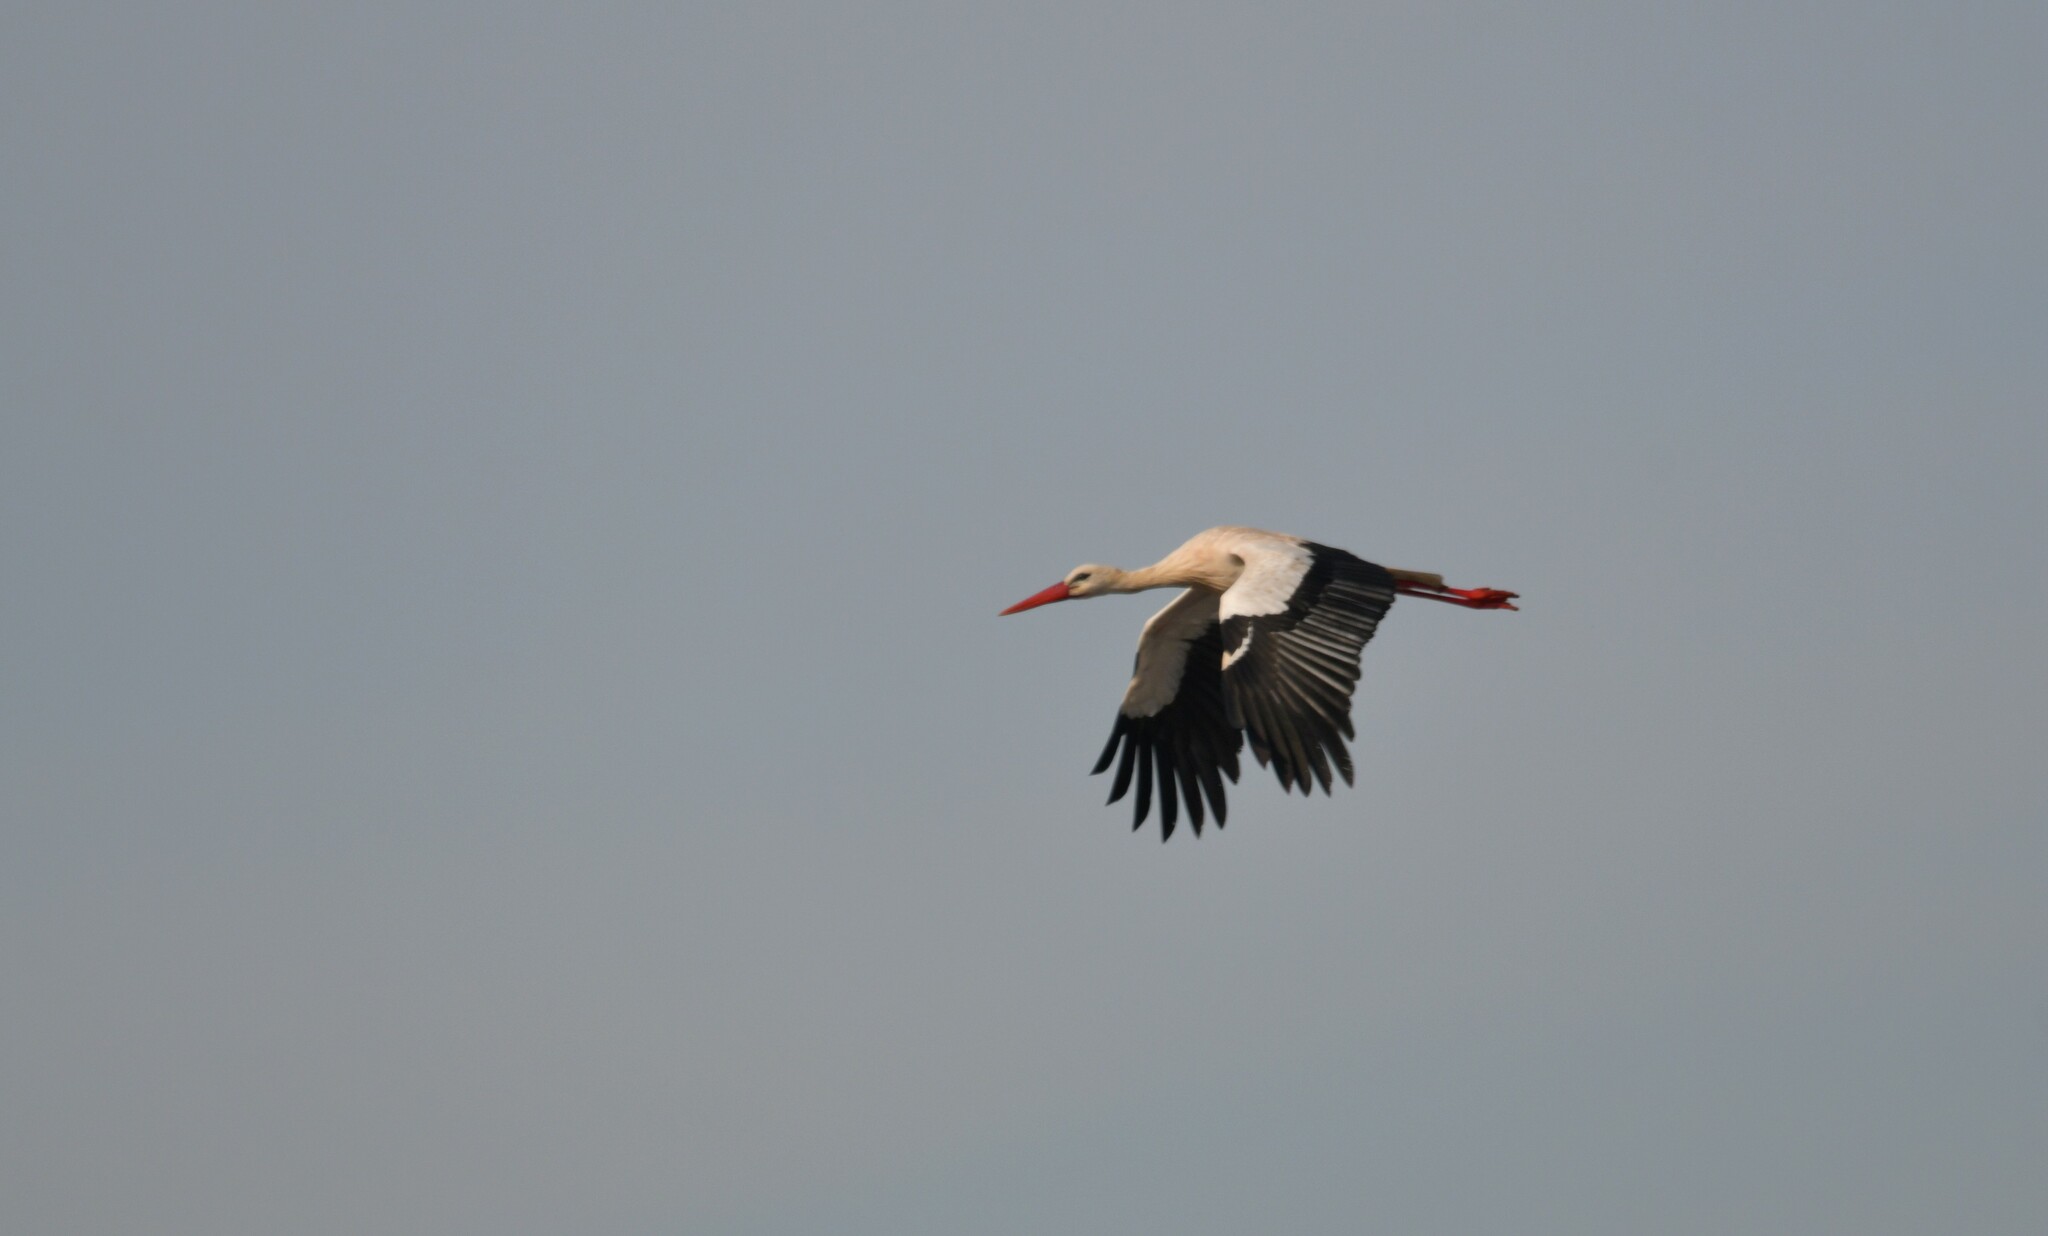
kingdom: Animalia
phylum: Chordata
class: Aves
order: Ciconiiformes
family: Ciconiidae
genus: Ciconia
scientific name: Ciconia ciconia
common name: White stork
